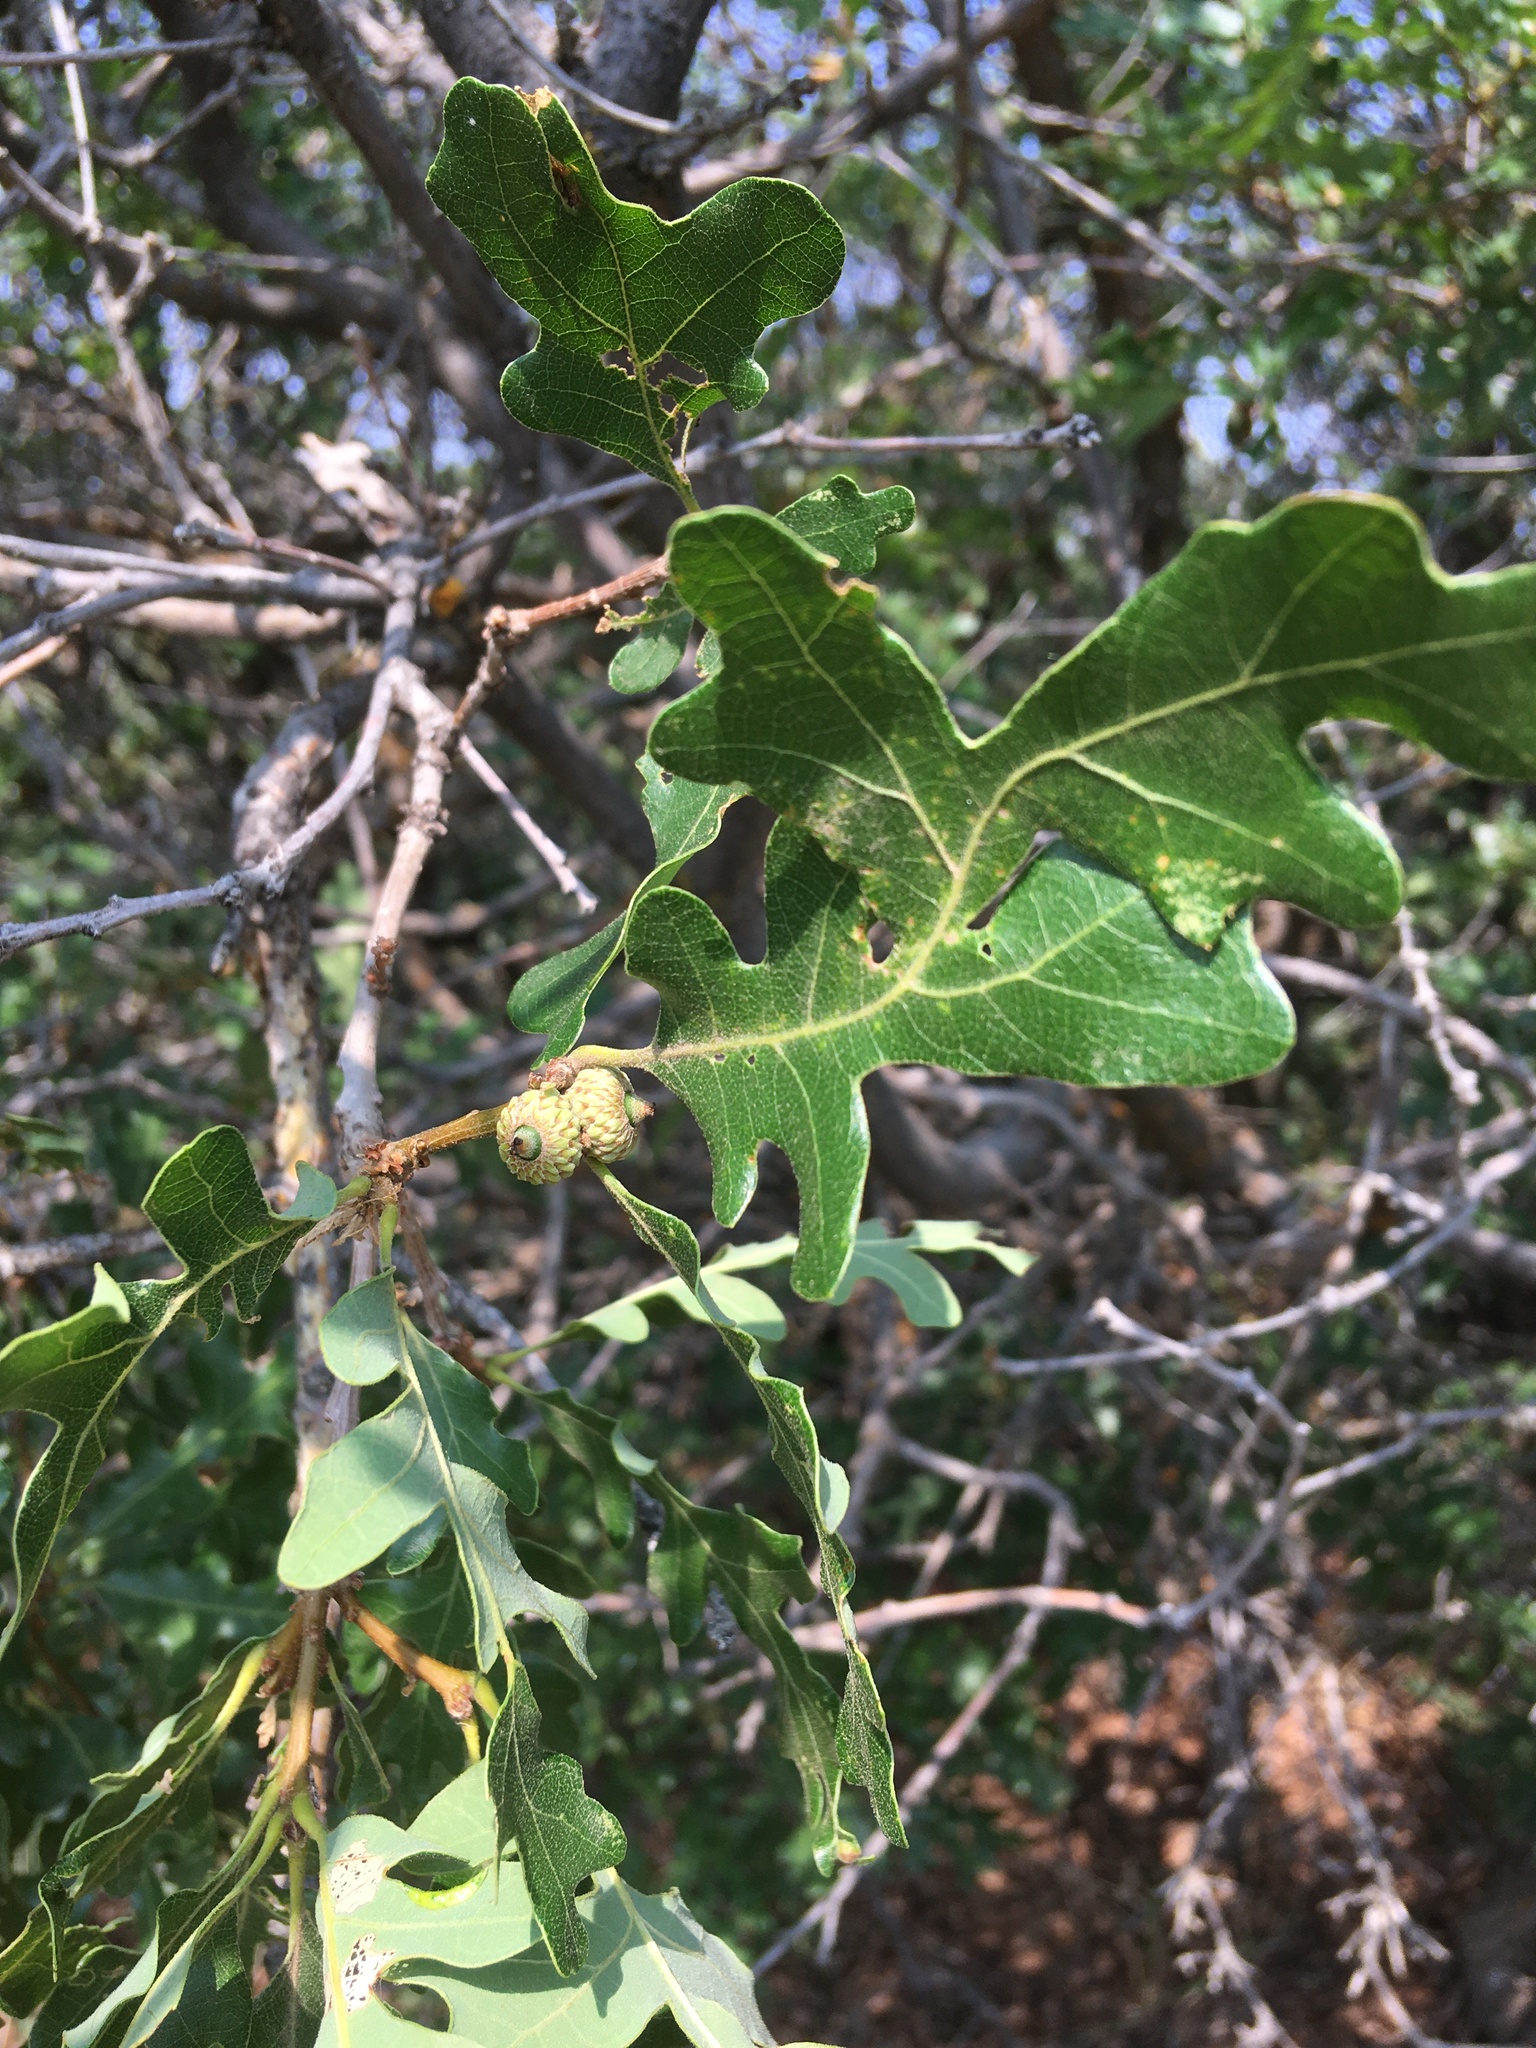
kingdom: Plantae
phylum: Tracheophyta
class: Magnoliopsida
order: Fagales
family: Fagaceae
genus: Quercus
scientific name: Quercus gambelii
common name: Gambel oak
